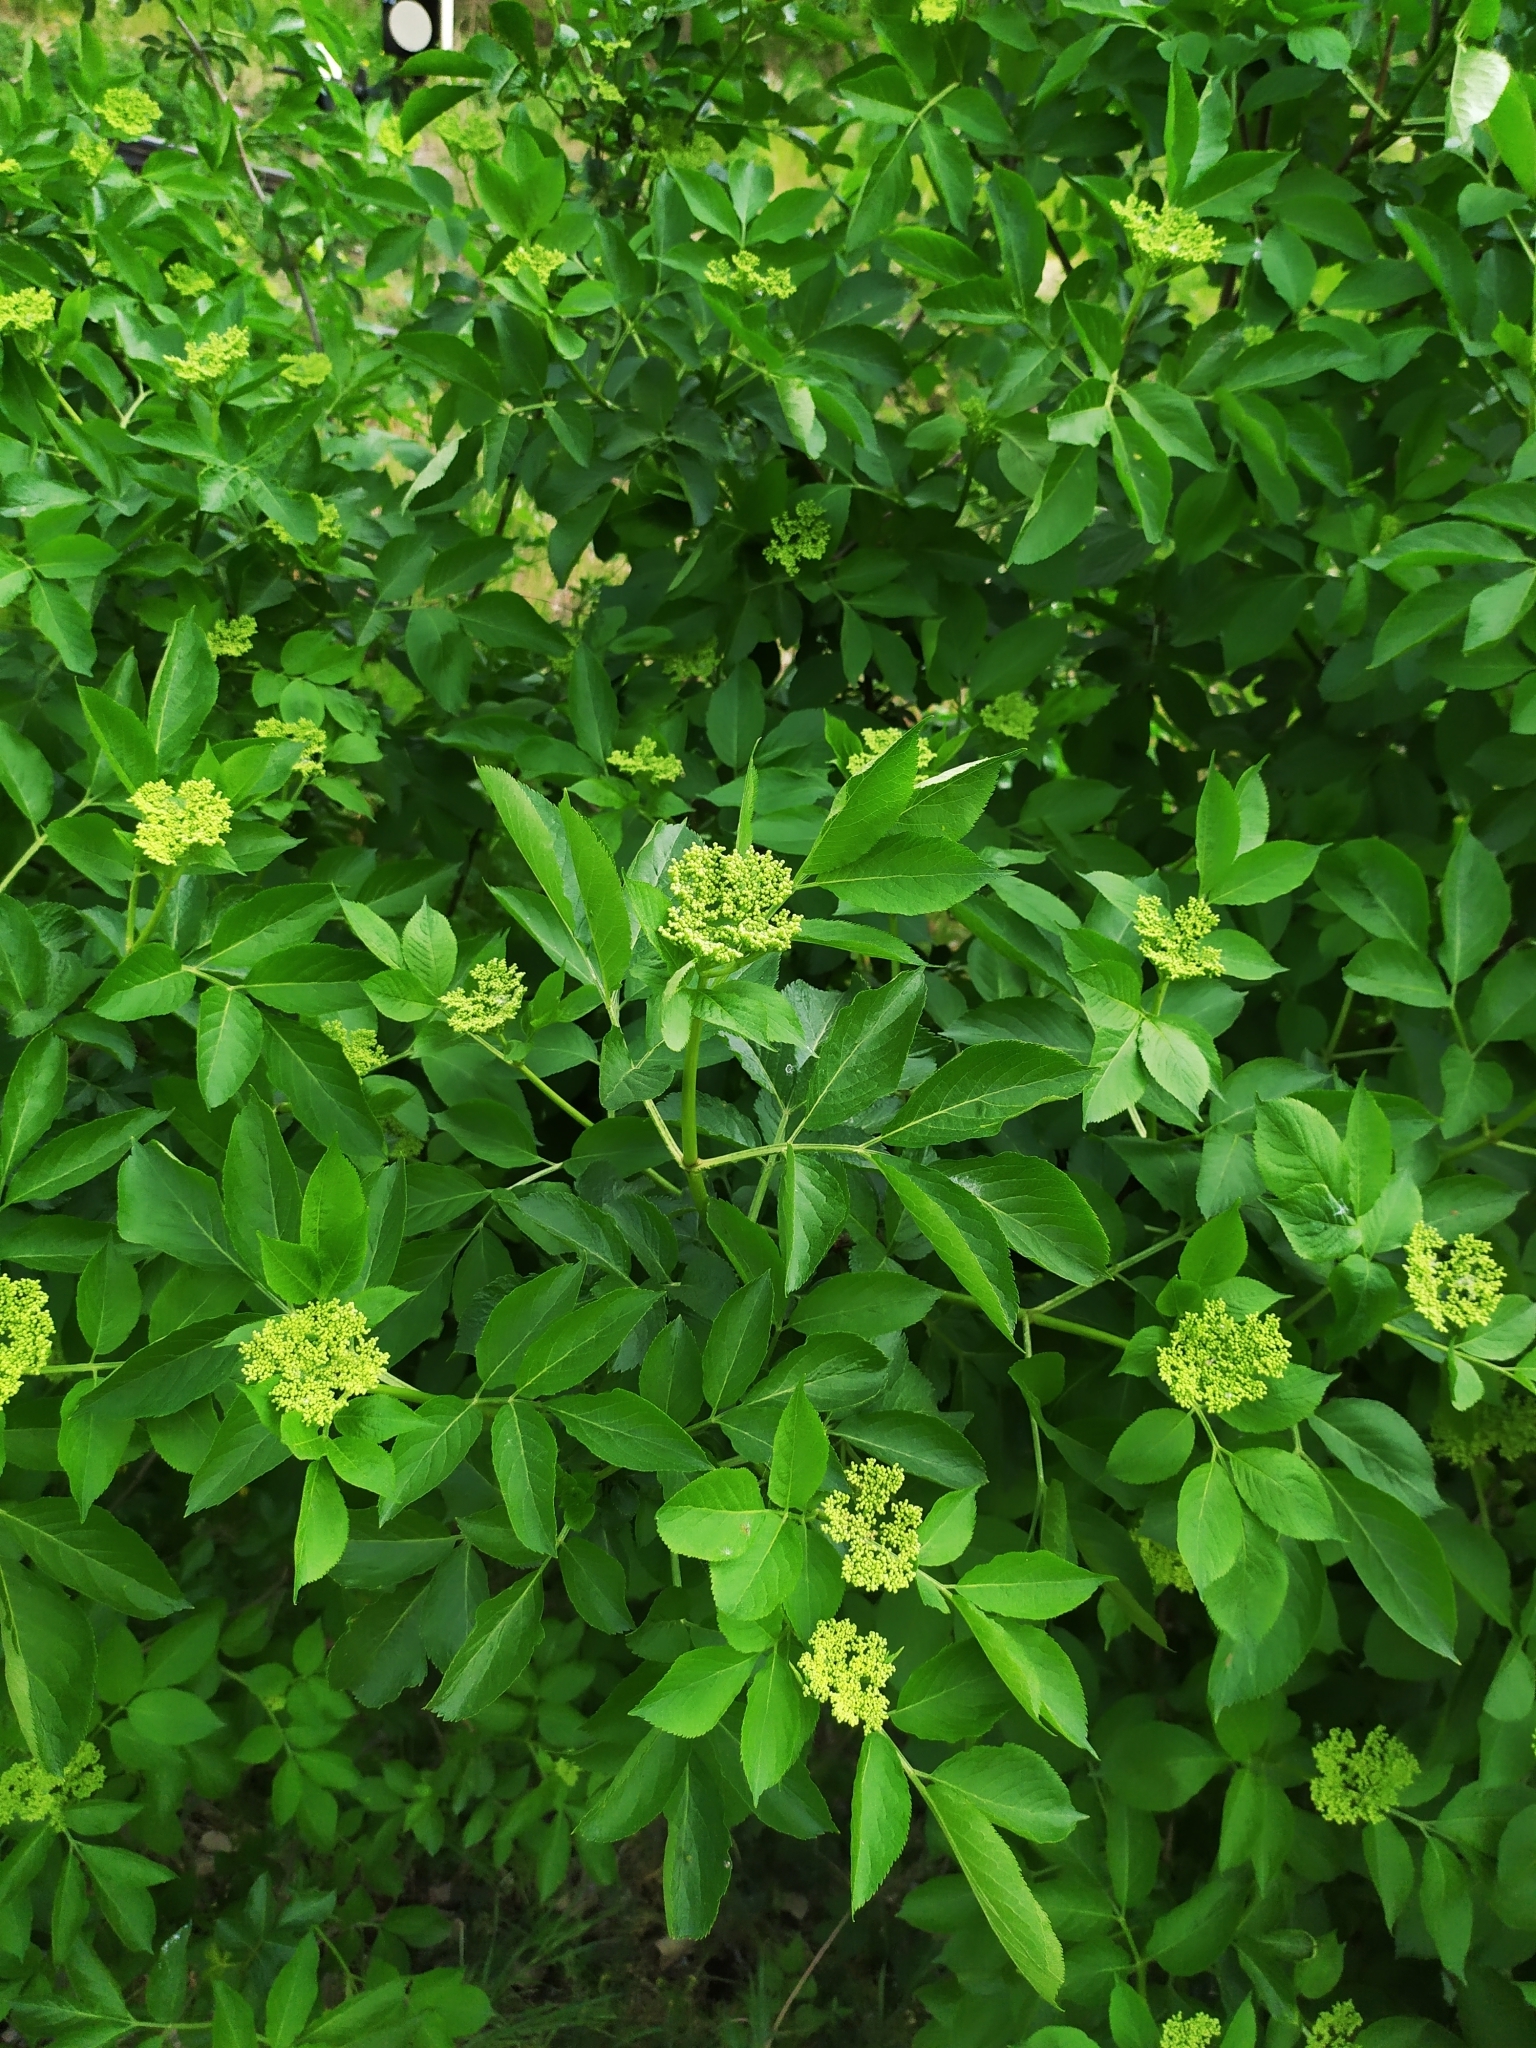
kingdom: Plantae
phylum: Tracheophyta
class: Magnoliopsida
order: Dipsacales
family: Viburnaceae
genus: Sambucus
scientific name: Sambucus nigra
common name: Elder
